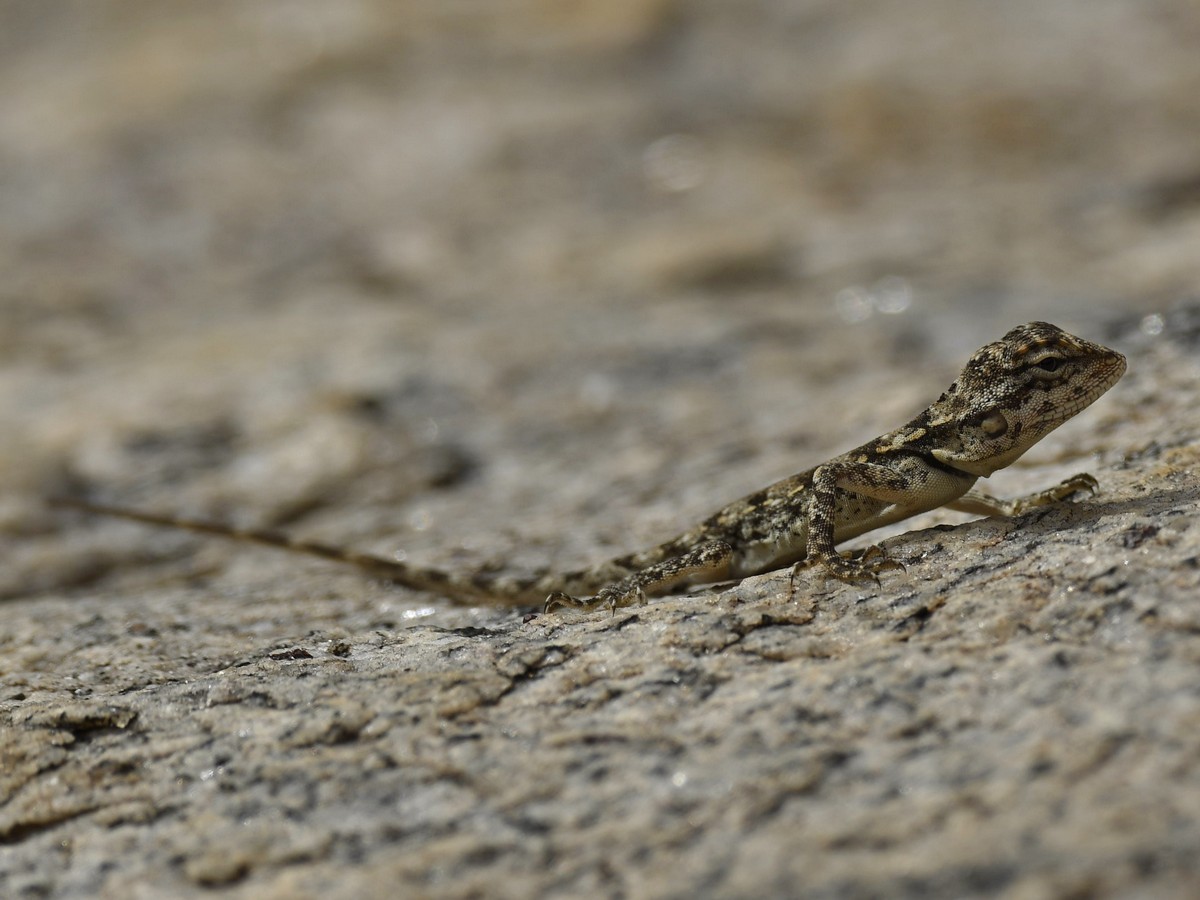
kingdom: Animalia
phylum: Chordata
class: Squamata
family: Agamidae
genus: Psammophilus
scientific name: Psammophilus dorsalis
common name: South indian rock agama
